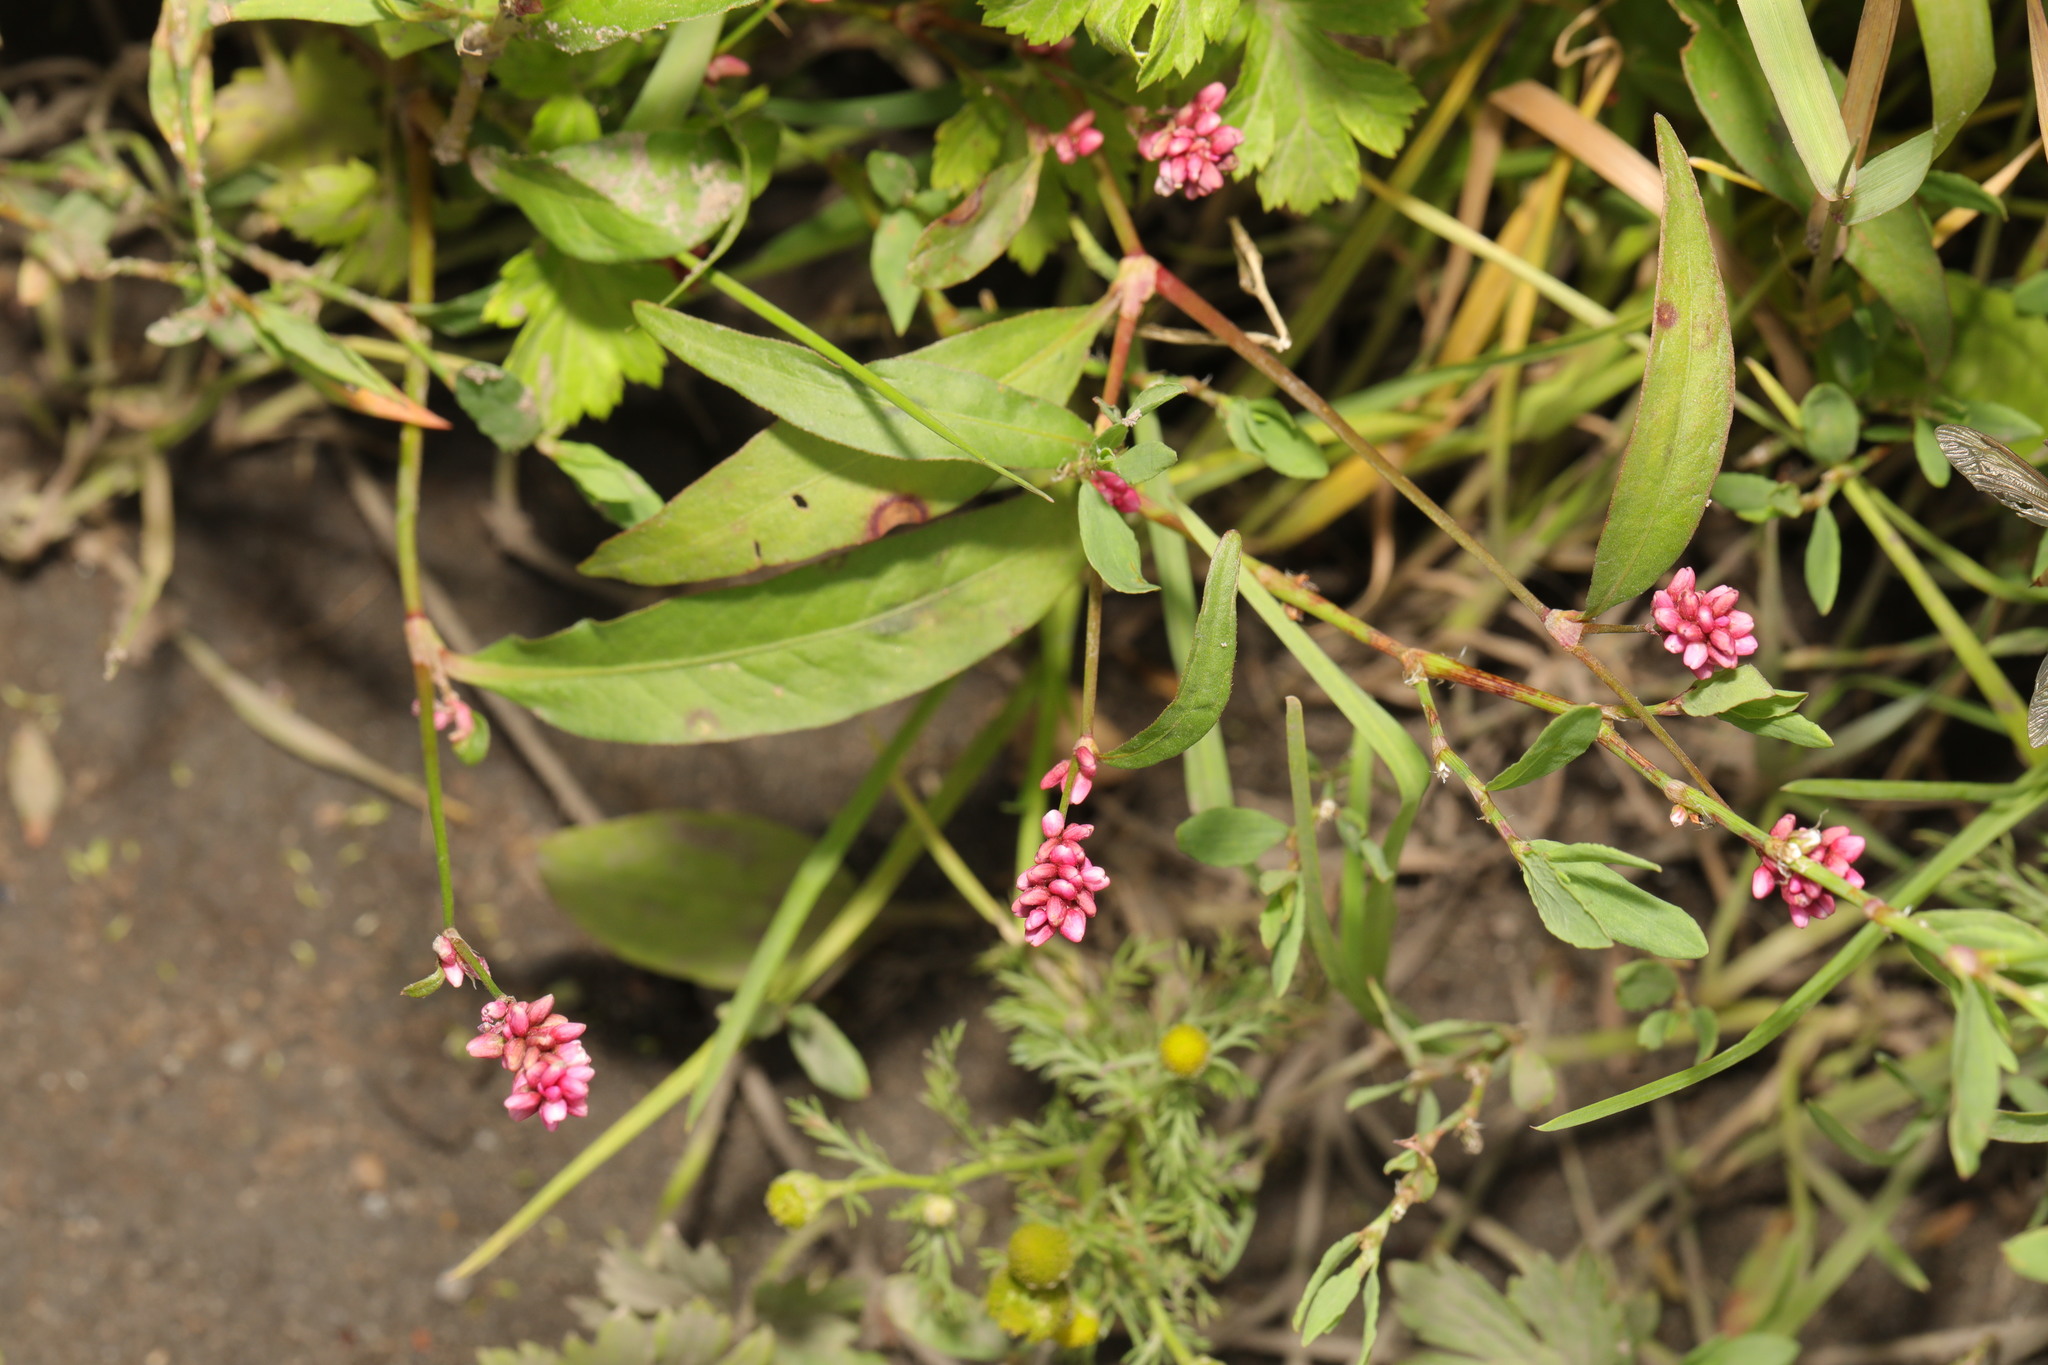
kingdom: Plantae
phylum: Tracheophyta
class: Magnoliopsida
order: Caryophyllales
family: Polygonaceae
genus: Persicaria
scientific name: Persicaria maculosa
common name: Redshank
